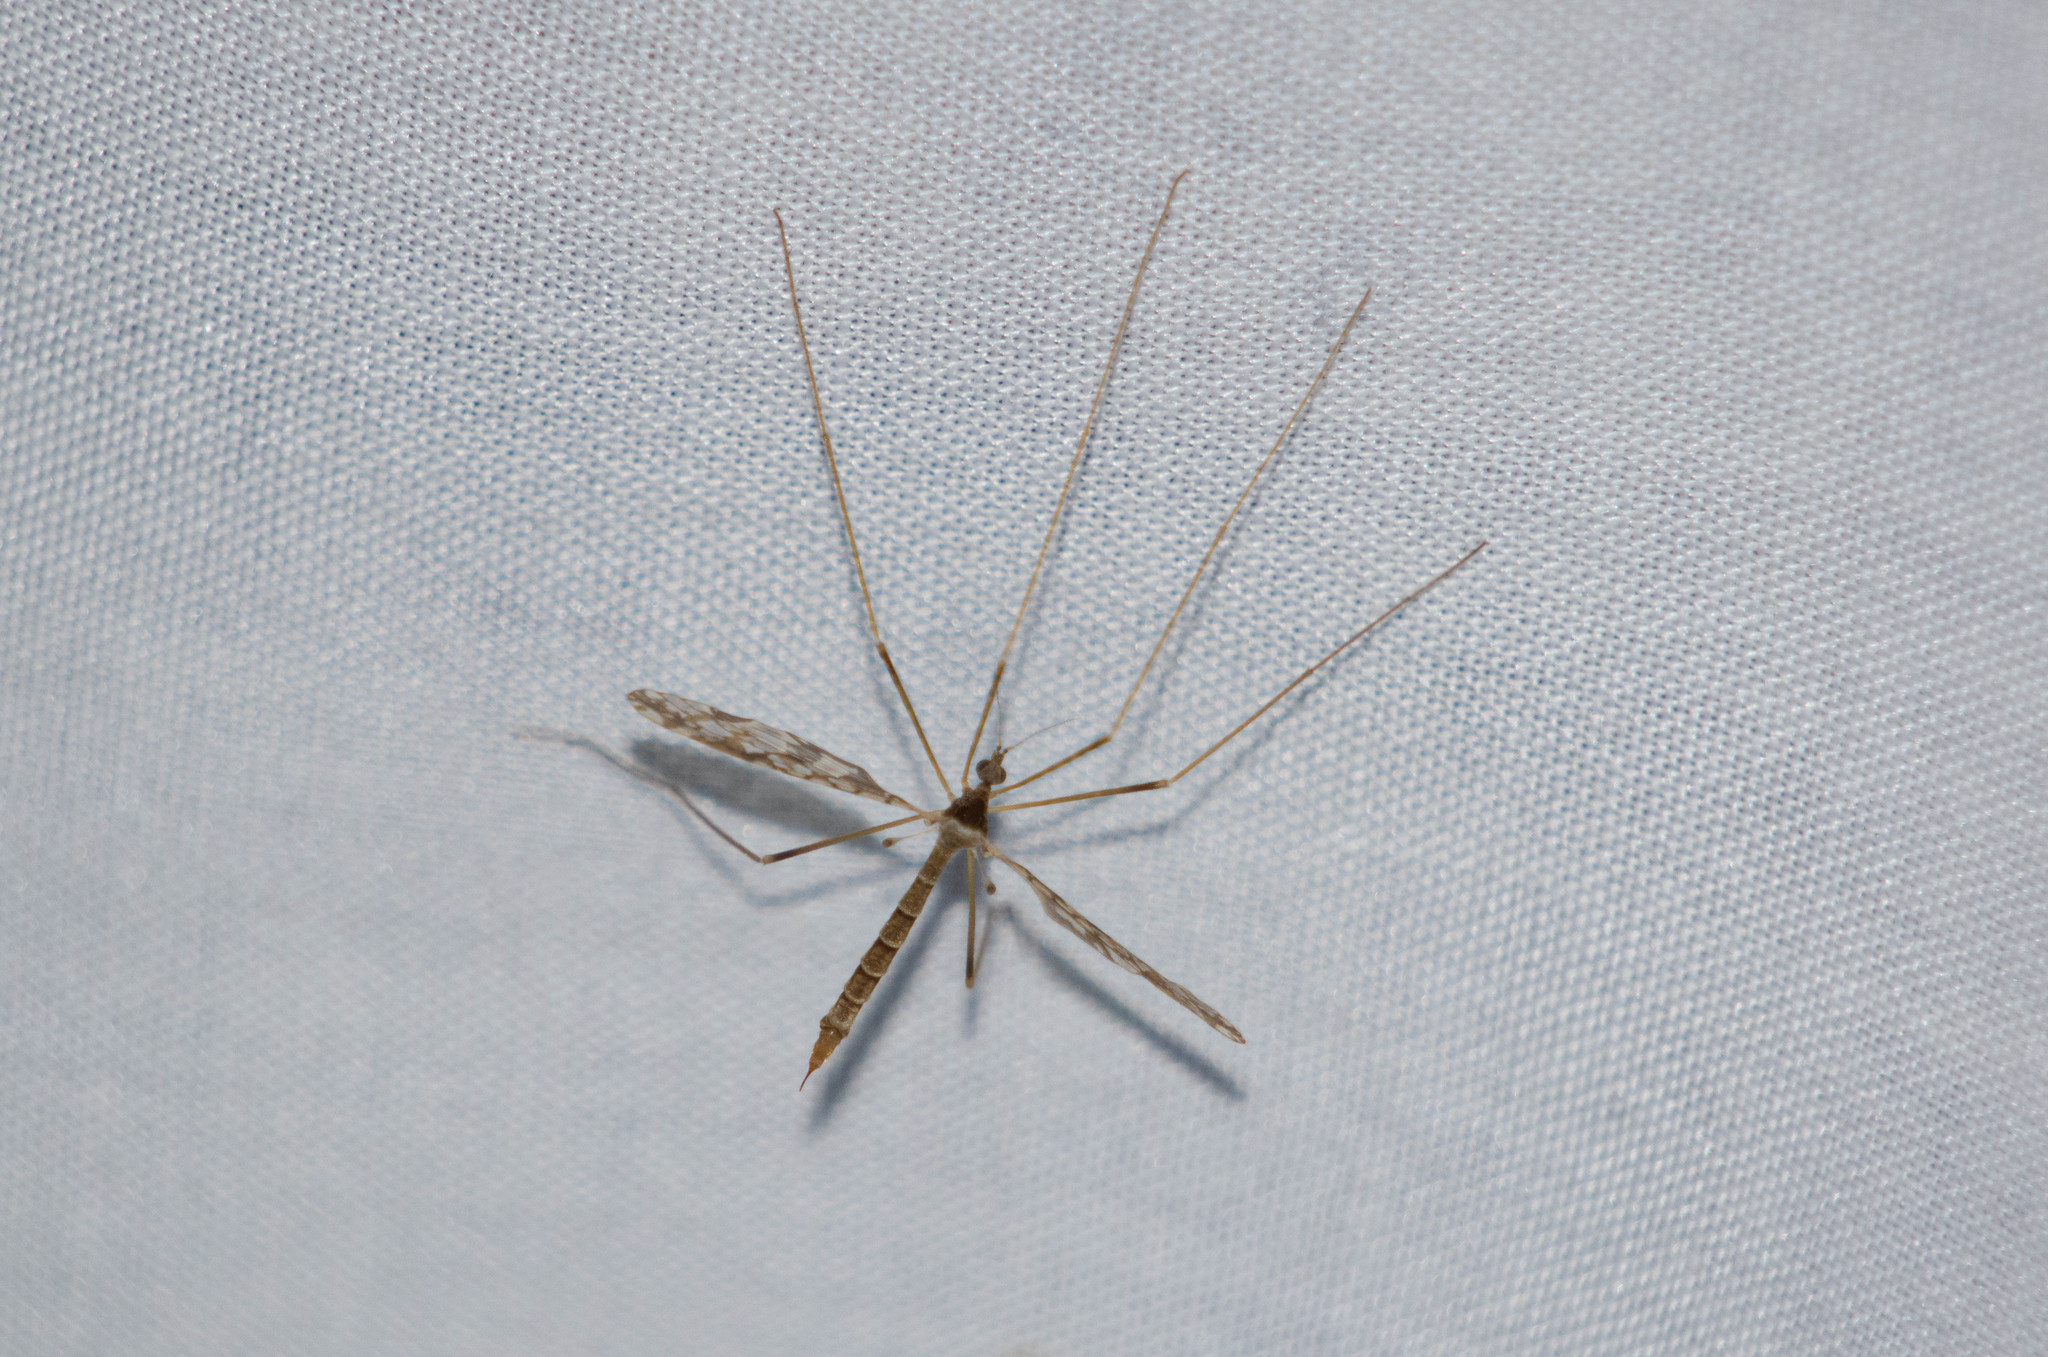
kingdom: Animalia
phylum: Arthropoda
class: Insecta
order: Diptera
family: Limoniidae
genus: Epiphragma
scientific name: Epiphragma solatrix
